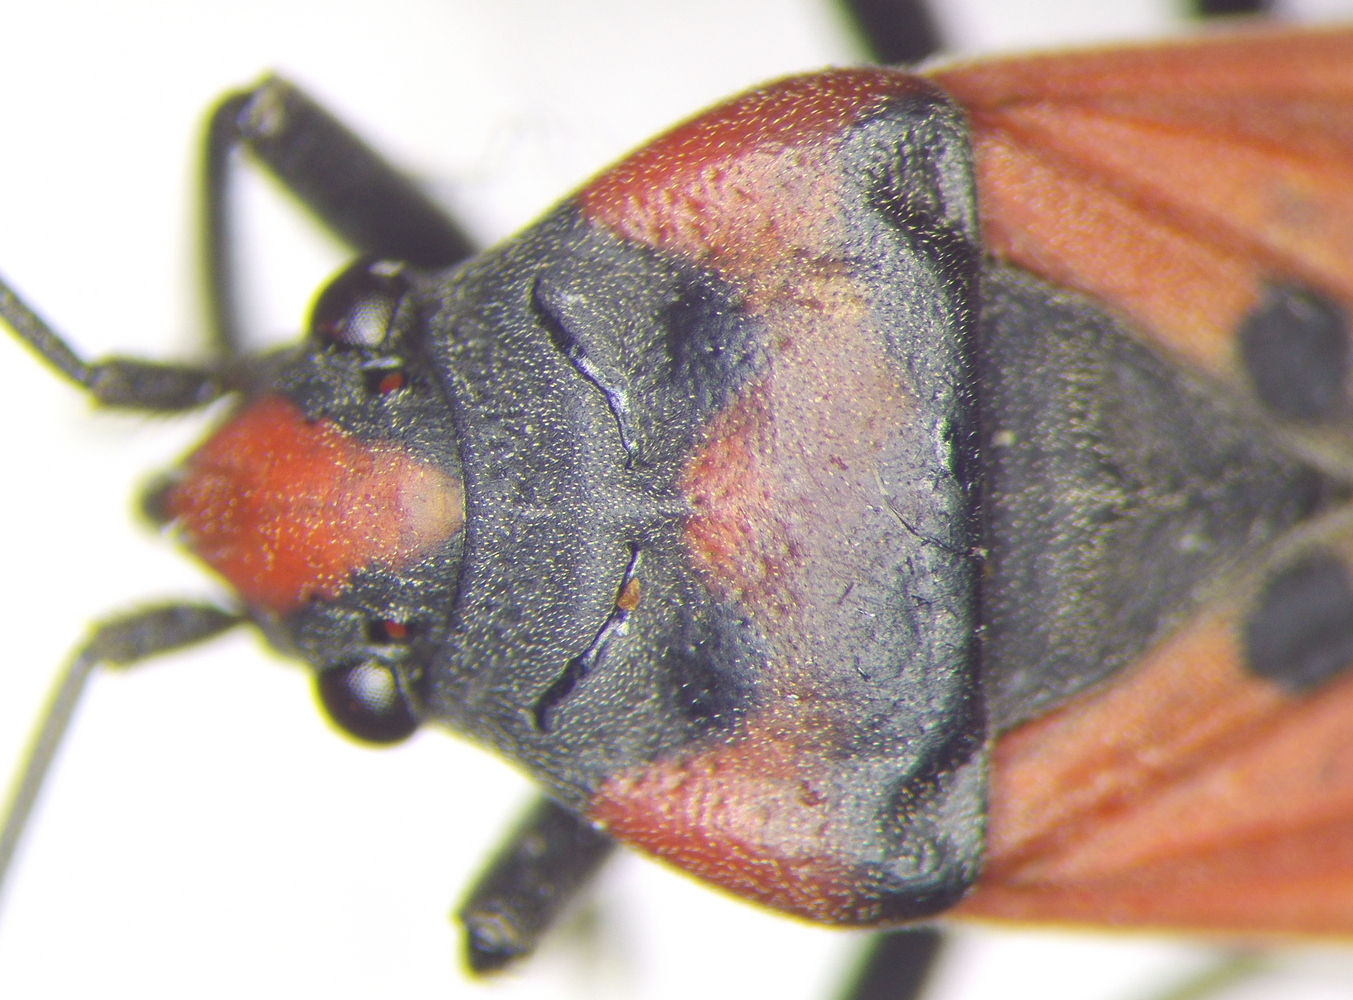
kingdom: Animalia
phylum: Arthropoda
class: Insecta
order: Hemiptera
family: Lygaeidae
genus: Lygaeus
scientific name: Lygaeus equestris
